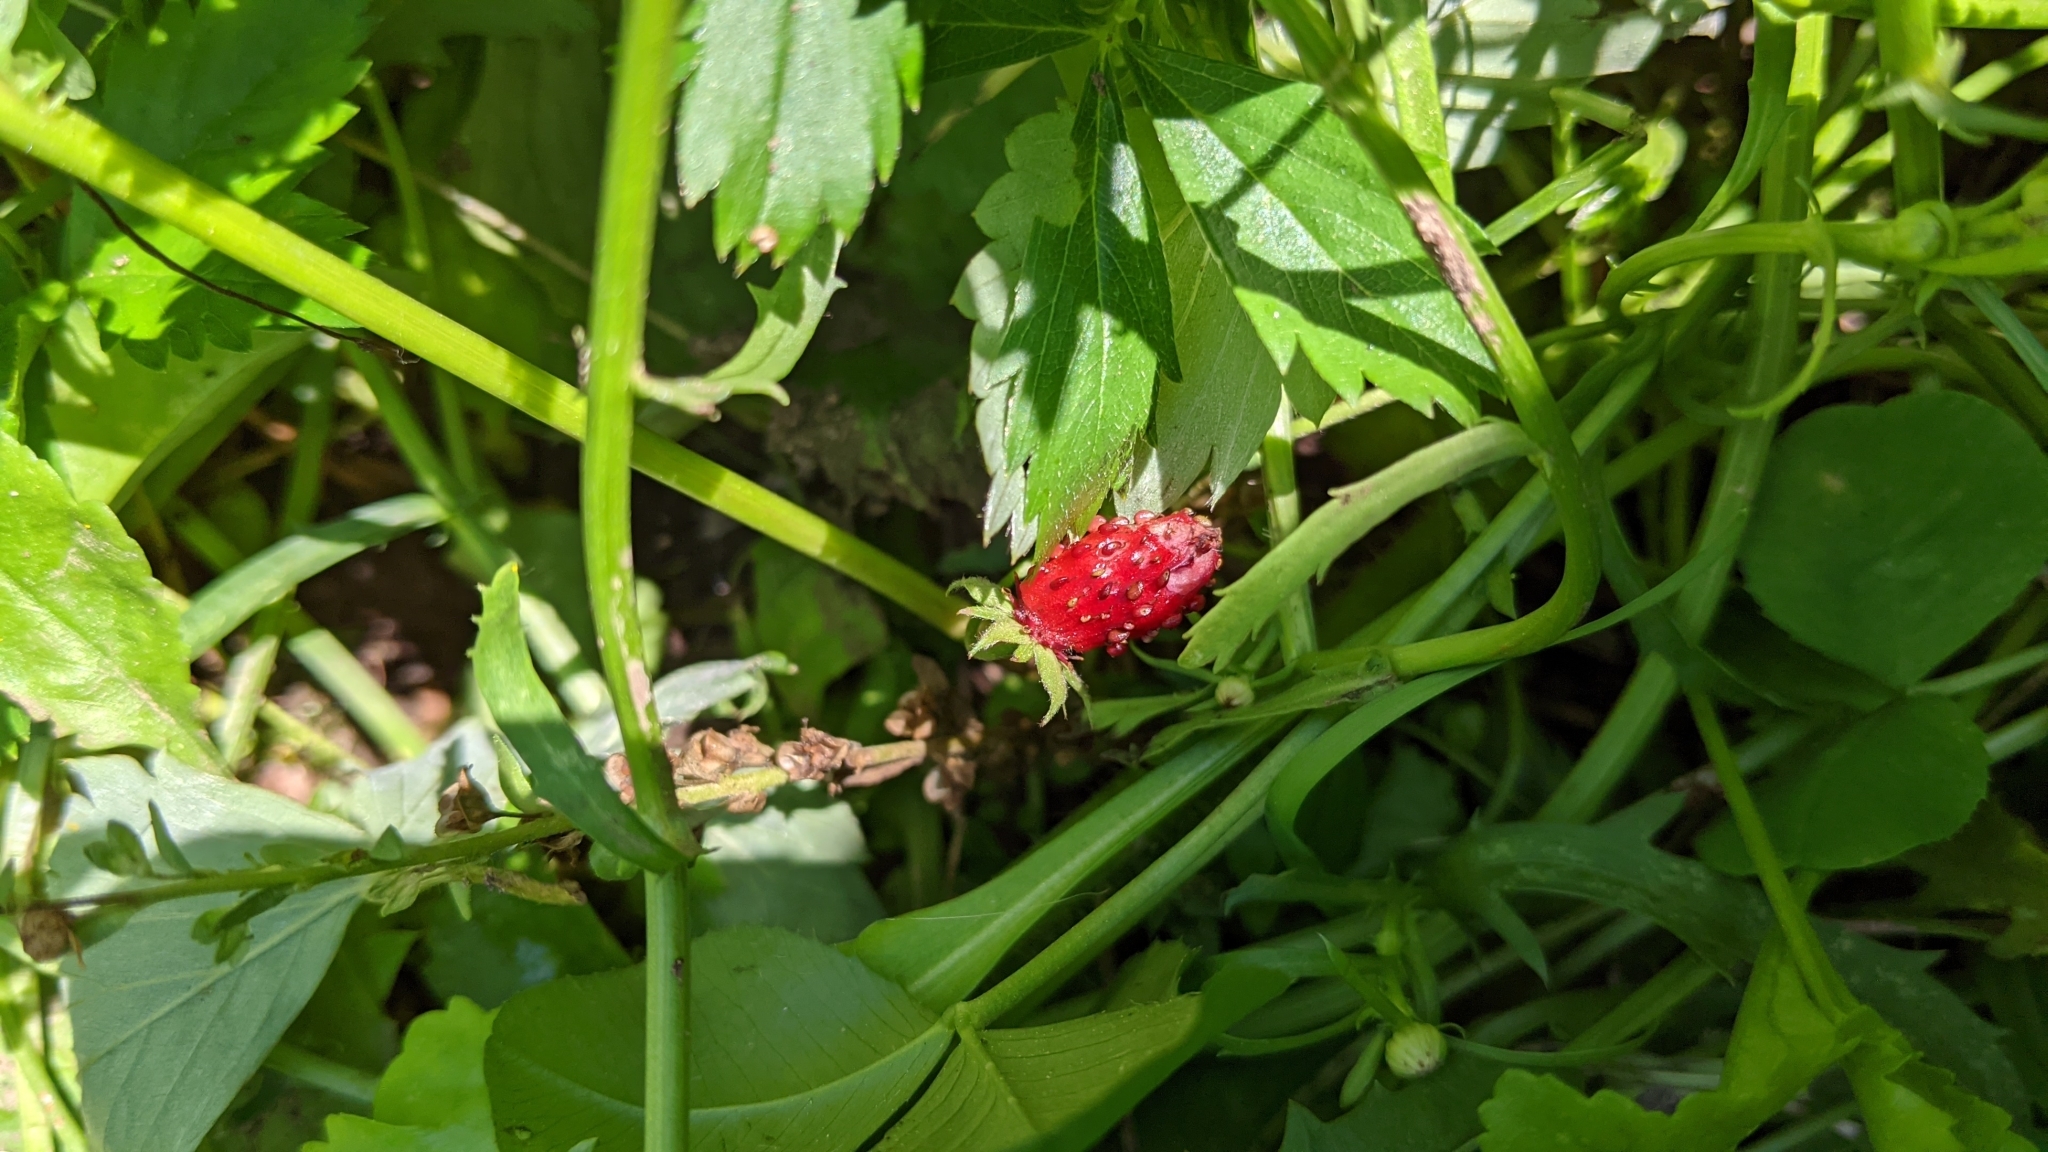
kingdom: Plantae
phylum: Tracheophyta
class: Magnoliopsida
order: Rosales
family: Rosaceae
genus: Fragaria
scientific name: Fragaria vesca
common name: Wild strawberry
